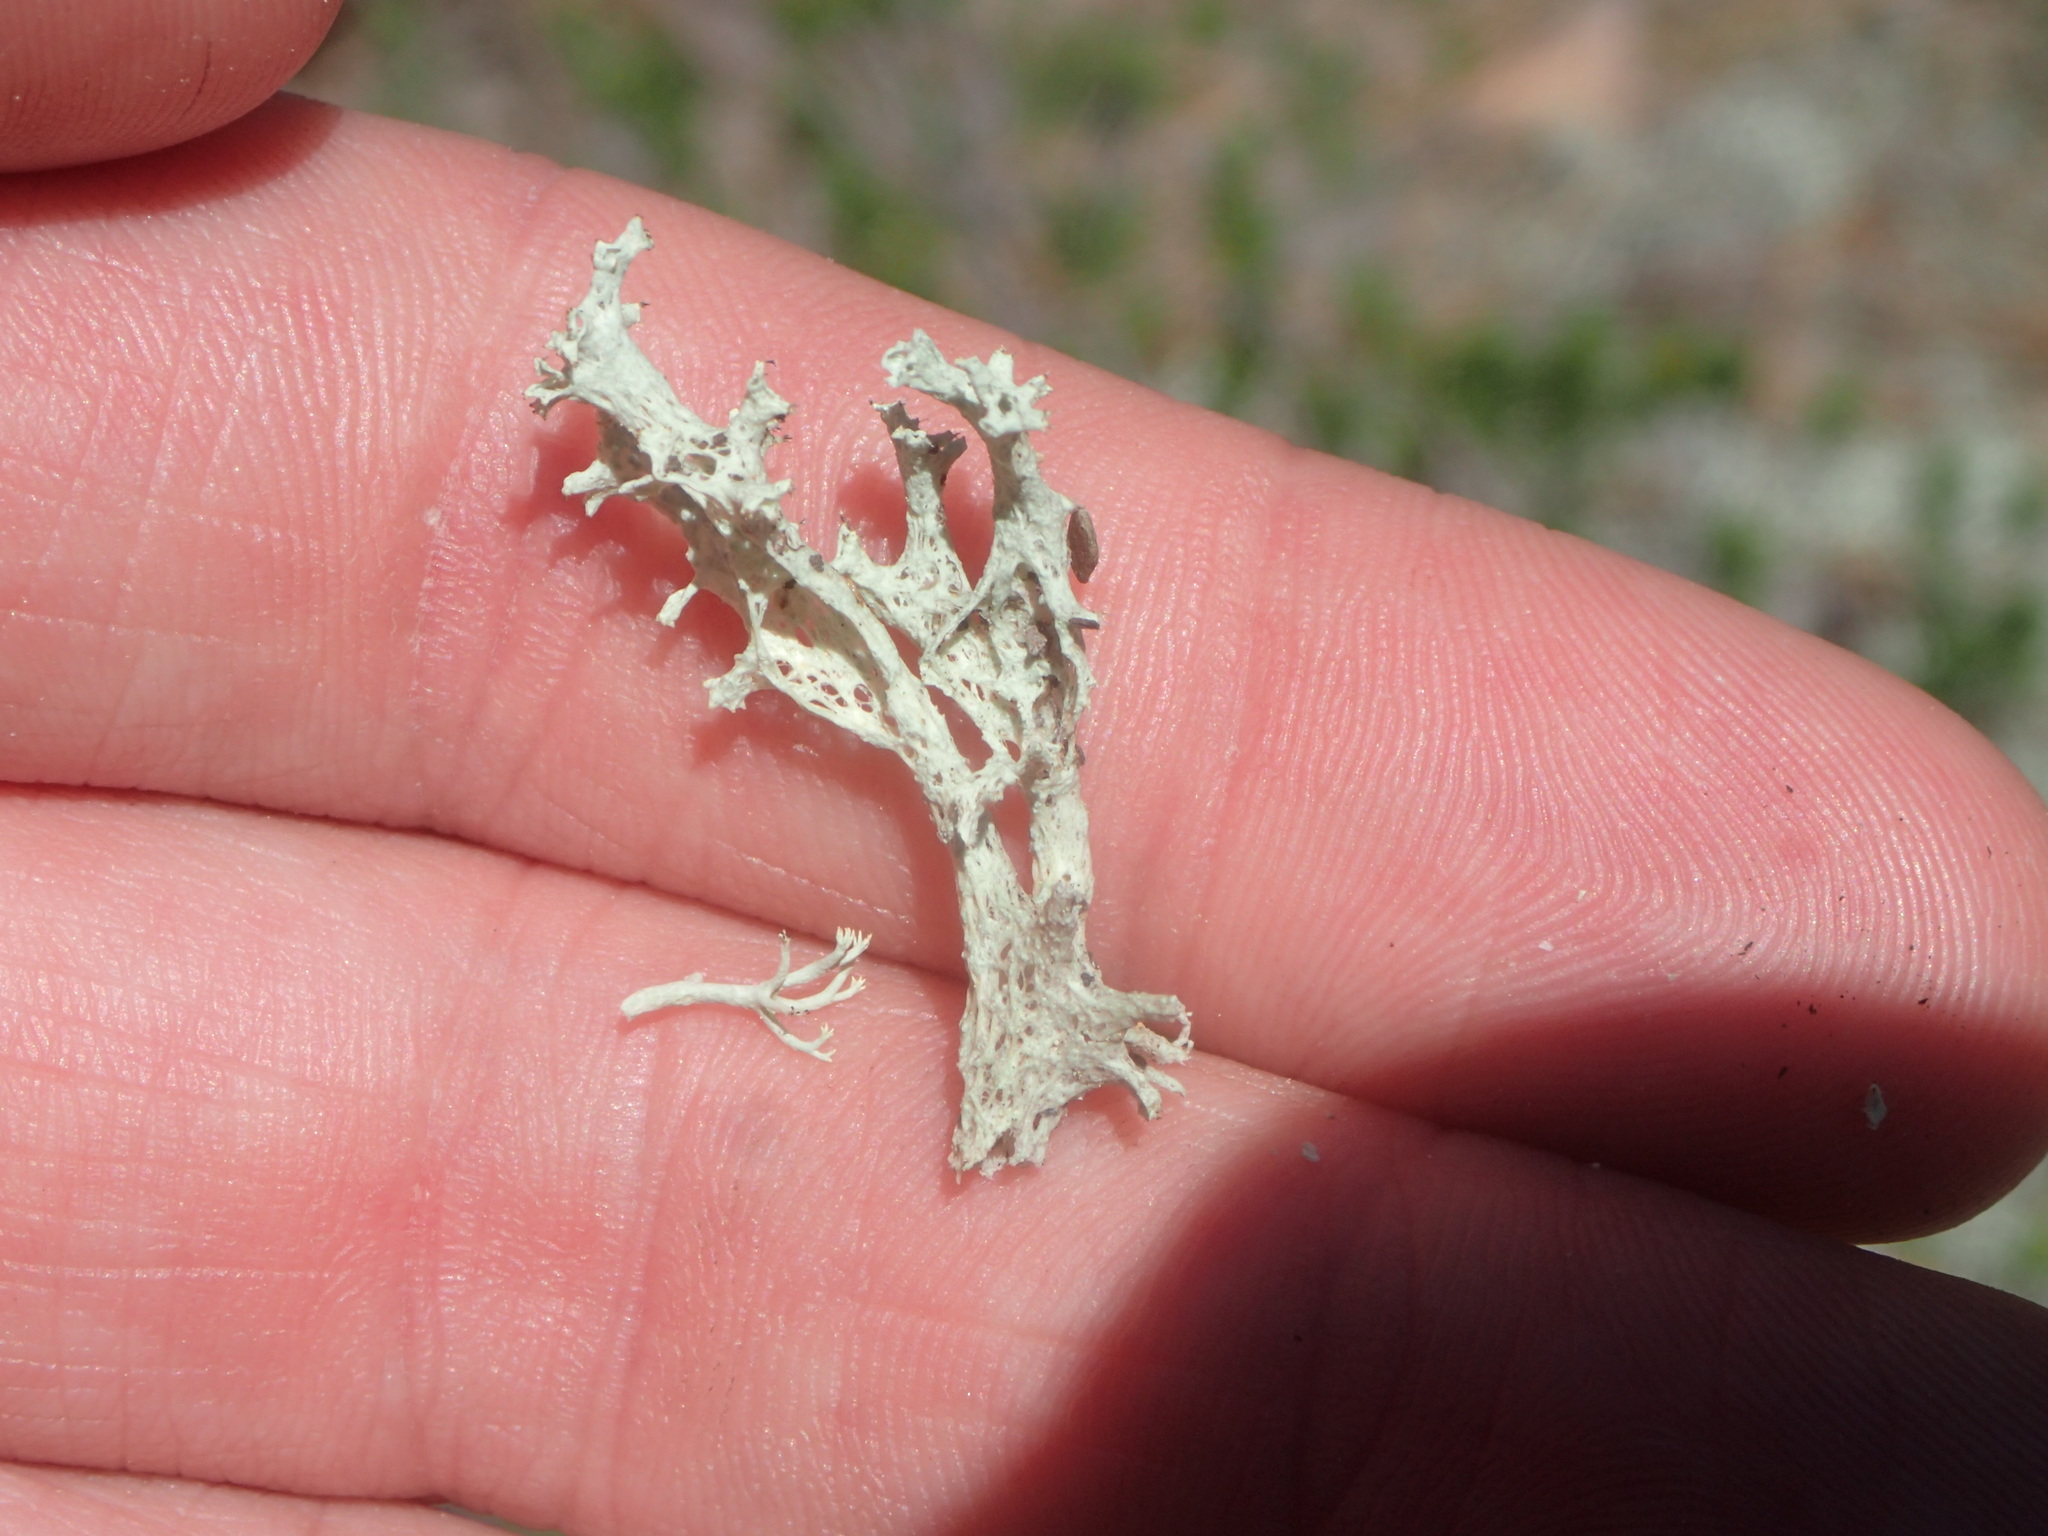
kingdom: Fungi
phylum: Ascomycota
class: Lecanoromycetes
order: Lecanorales
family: Cladoniaceae
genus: Cladonia
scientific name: Cladonia boryi
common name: Fishnet cladonia
